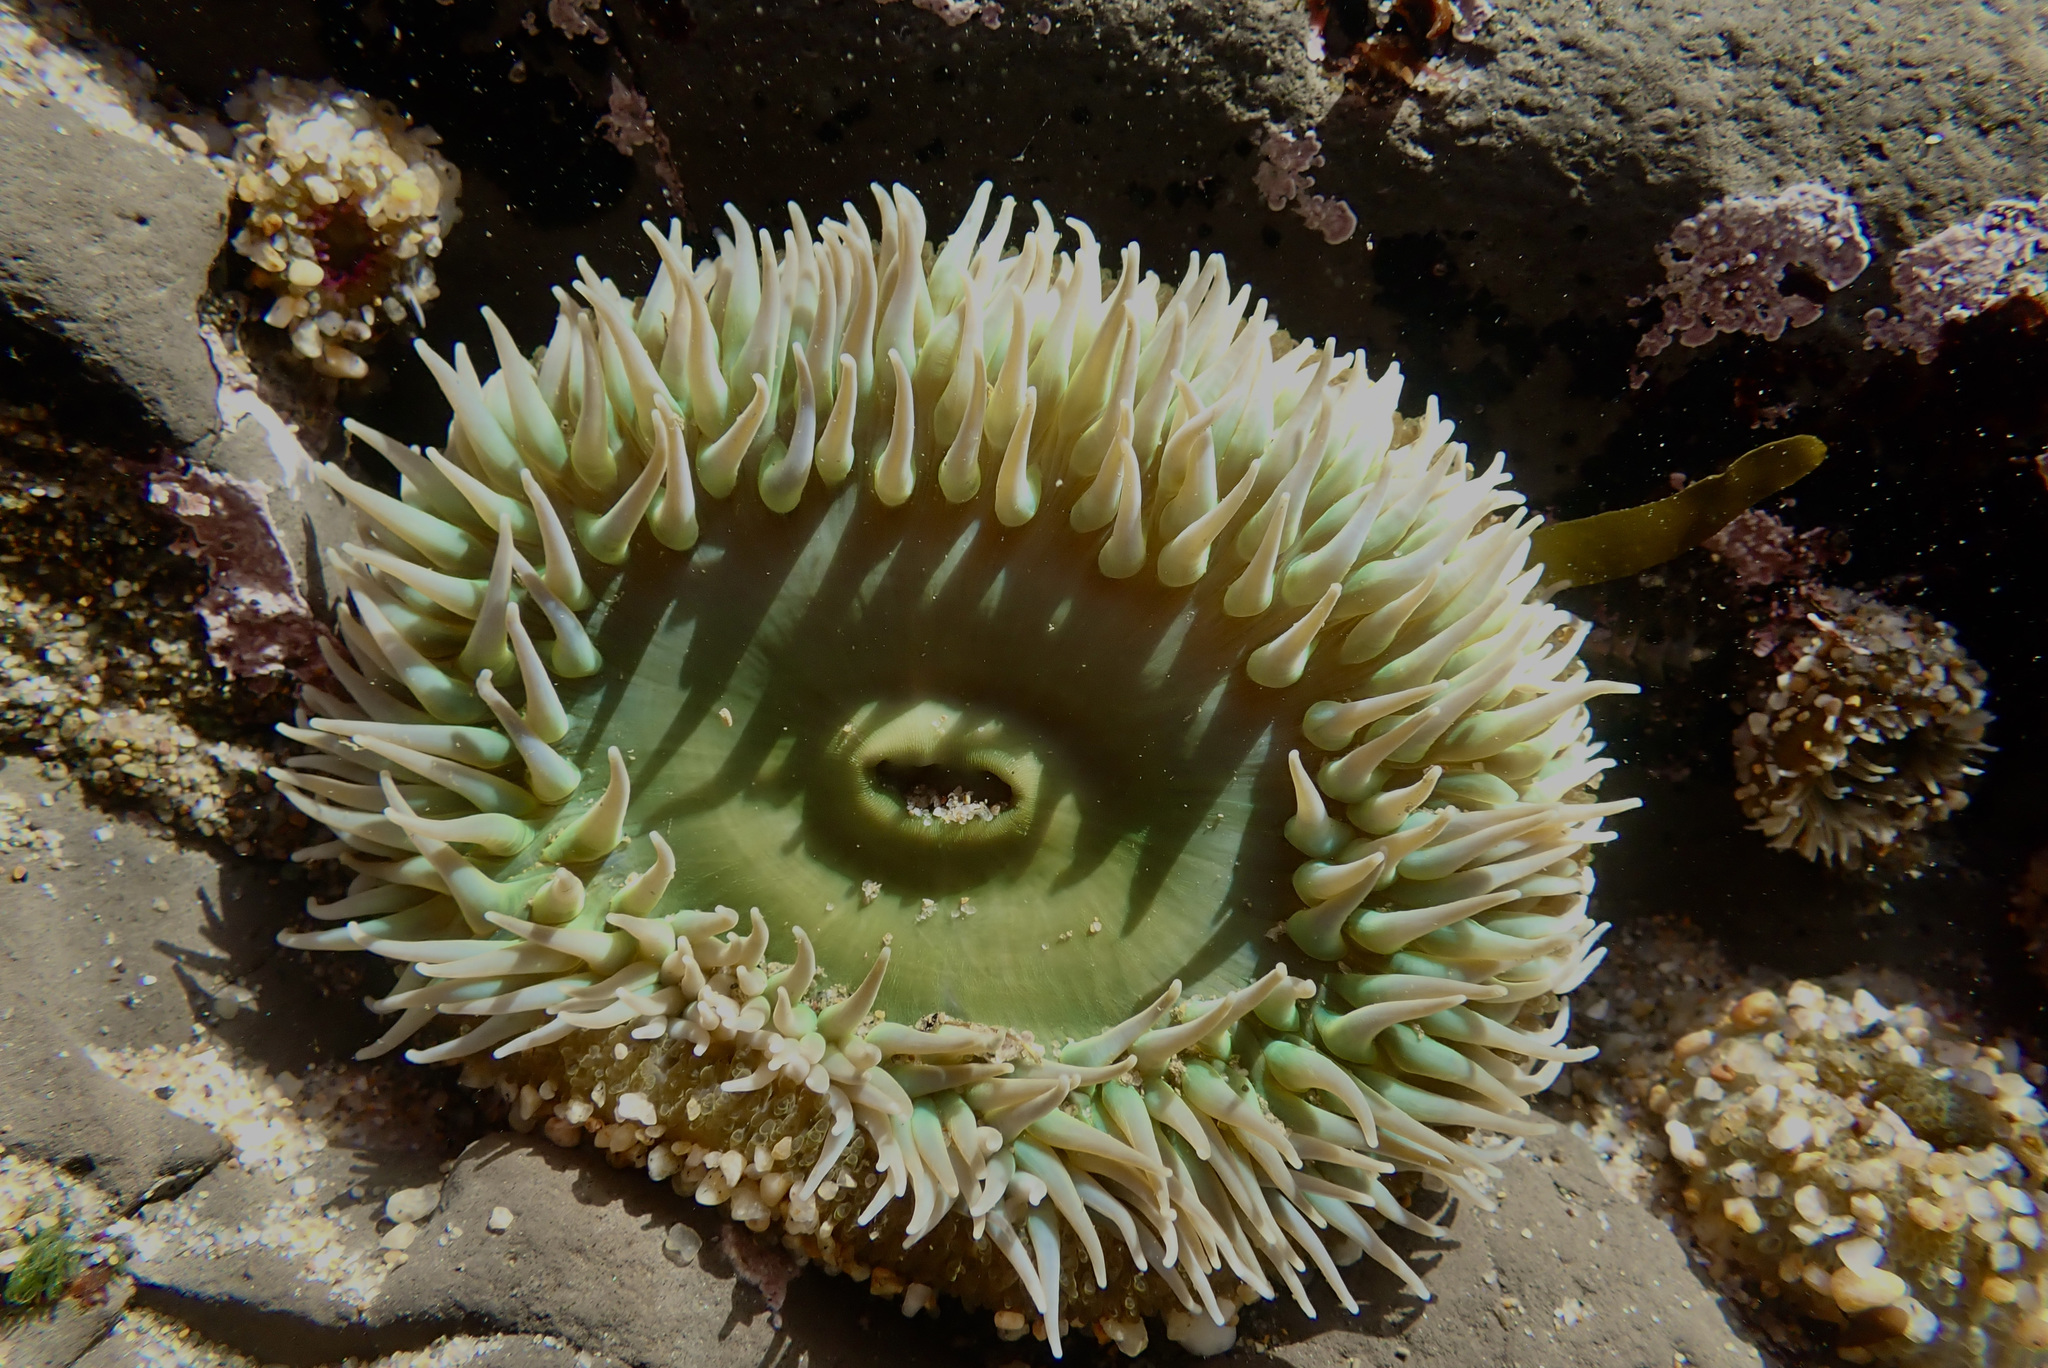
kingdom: Animalia
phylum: Cnidaria
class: Anthozoa
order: Actiniaria
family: Actiniidae
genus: Anthopleura
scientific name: Anthopleura xanthogrammica
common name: Giant green anemone
